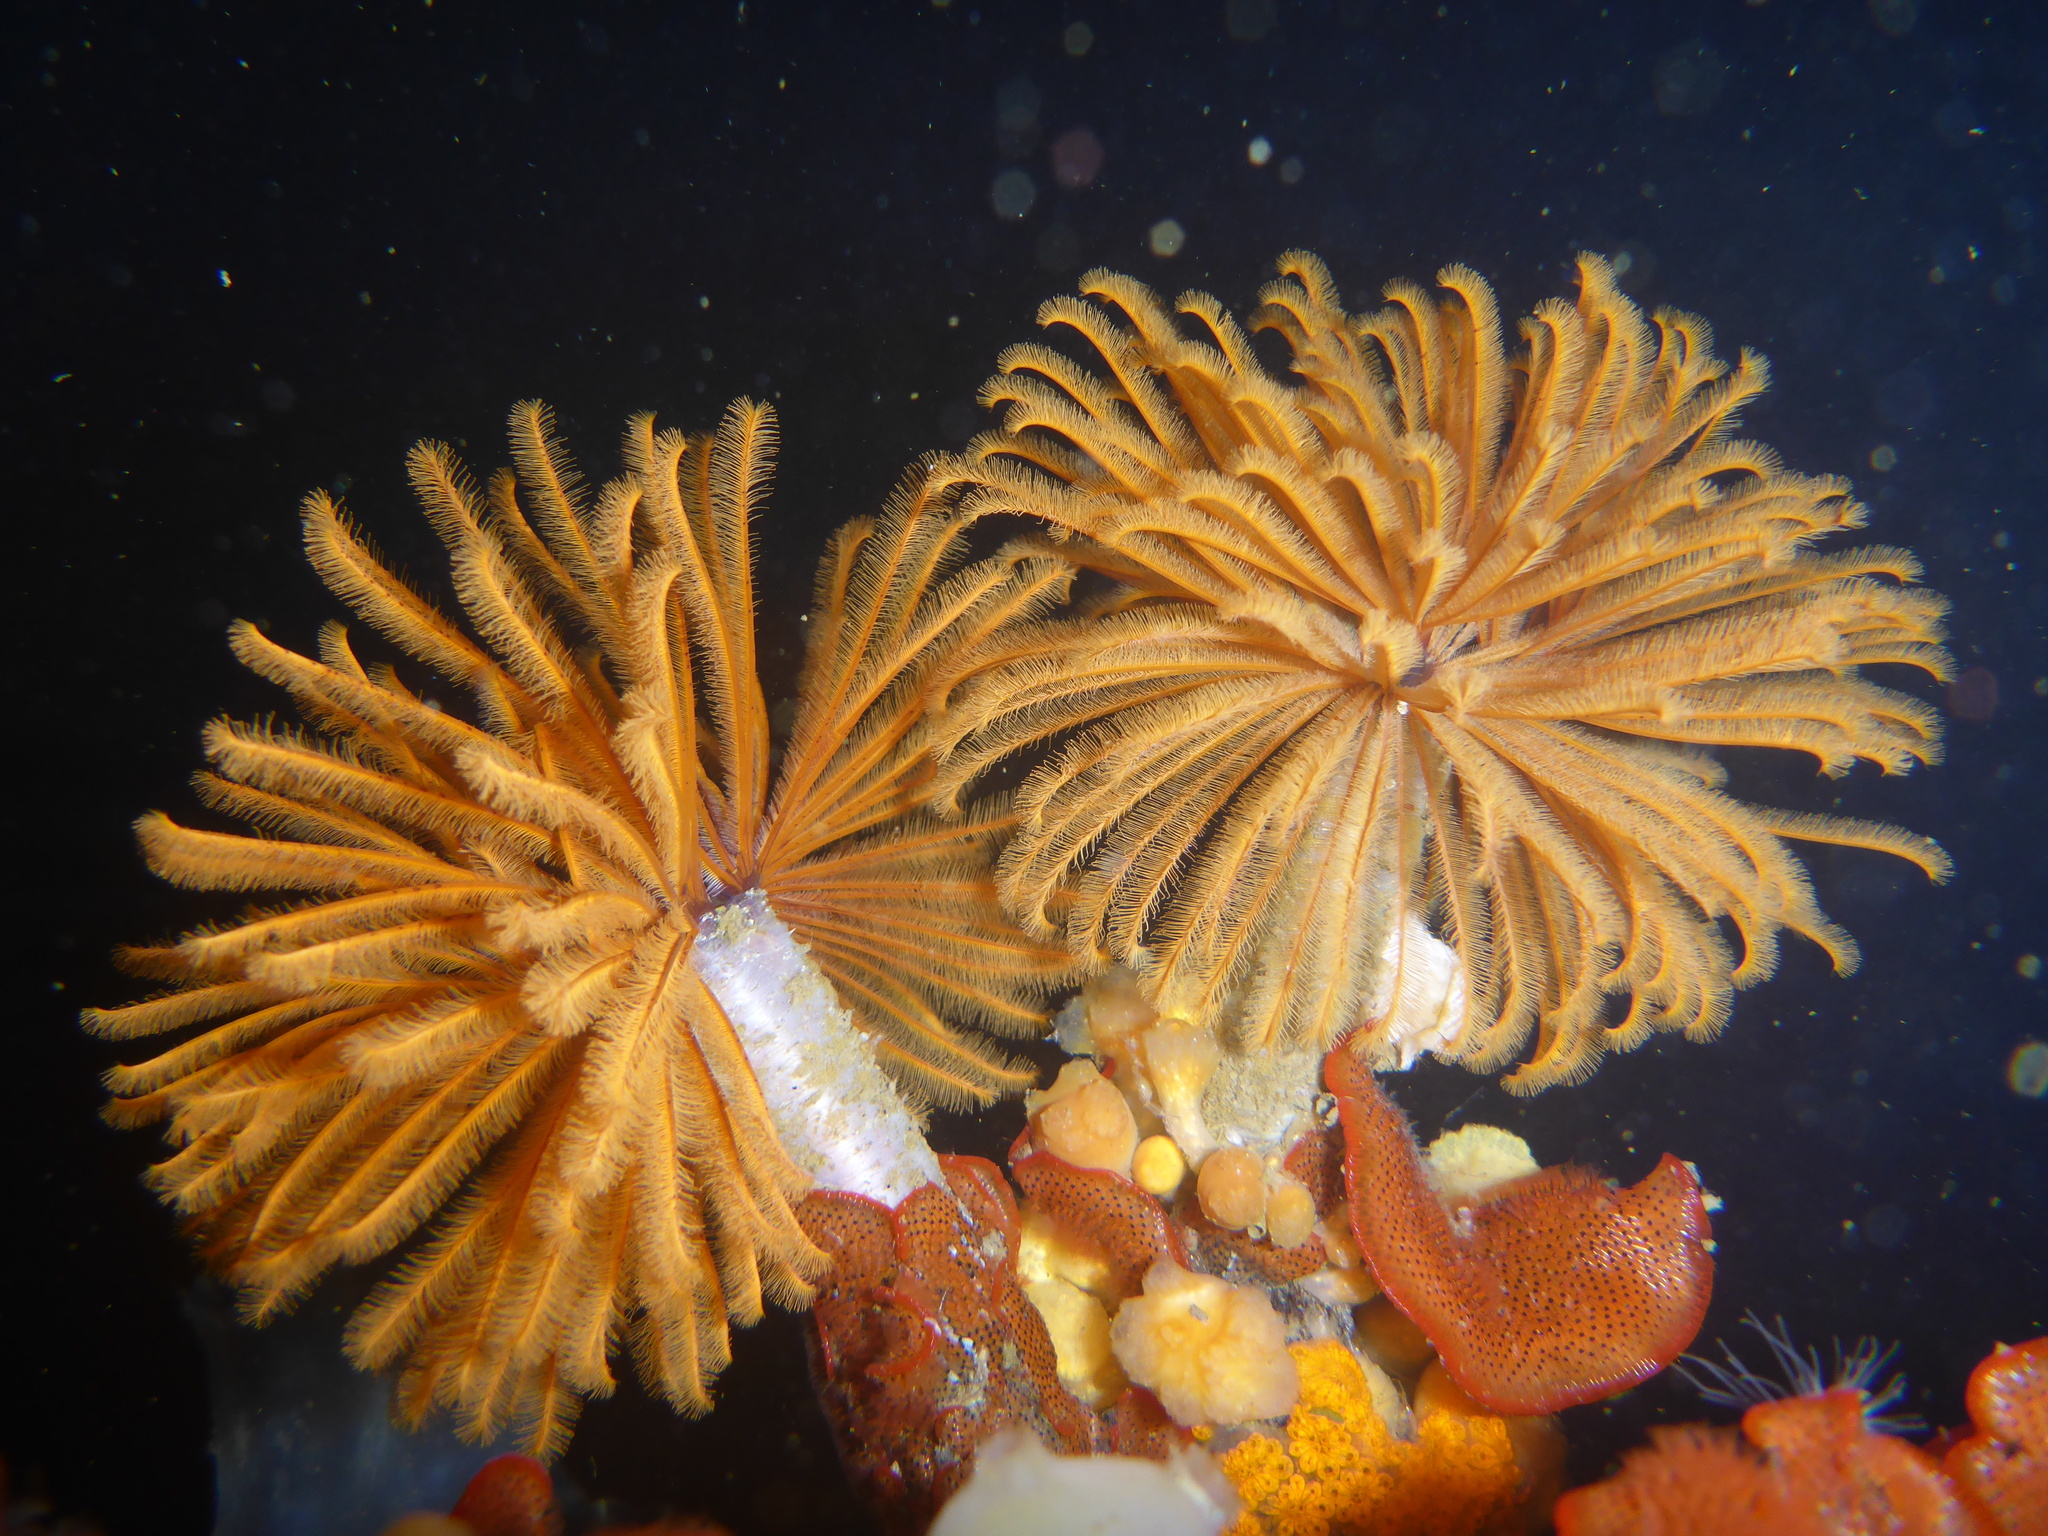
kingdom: Animalia
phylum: Annelida
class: Polychaeta
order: Sabellida
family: Sabellidae
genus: Eudistylia
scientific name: Eudistylia polymorpha
